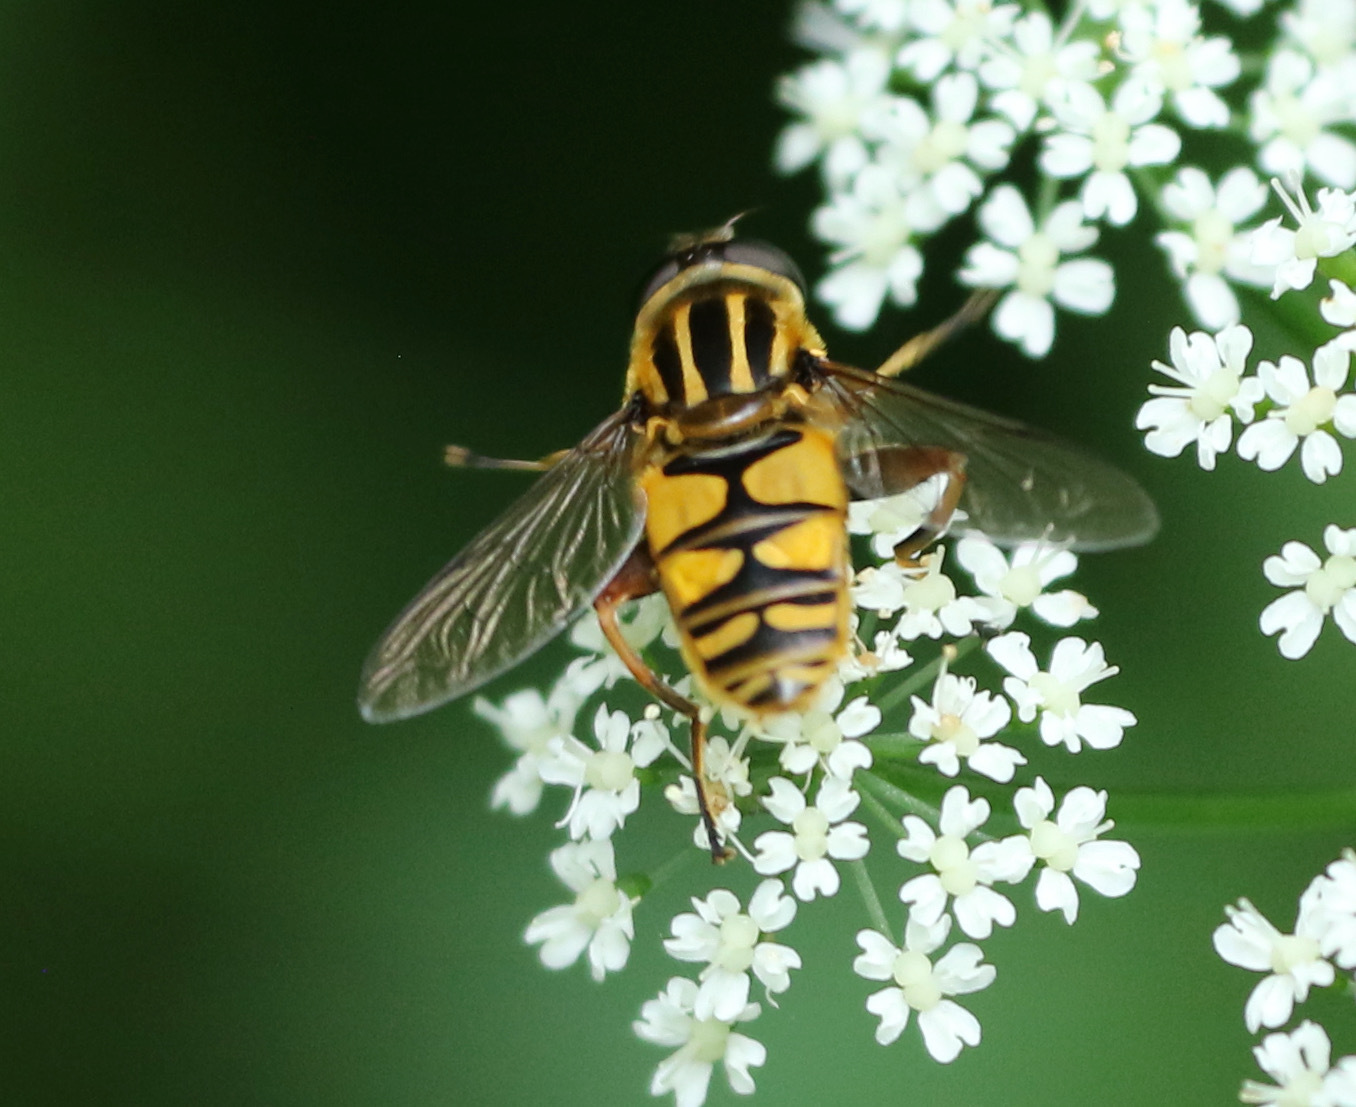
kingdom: Animalia
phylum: Arthropoda
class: Insecta
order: Diptera
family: Syrphidae
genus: Helophilus
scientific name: Helophilus pendulus
